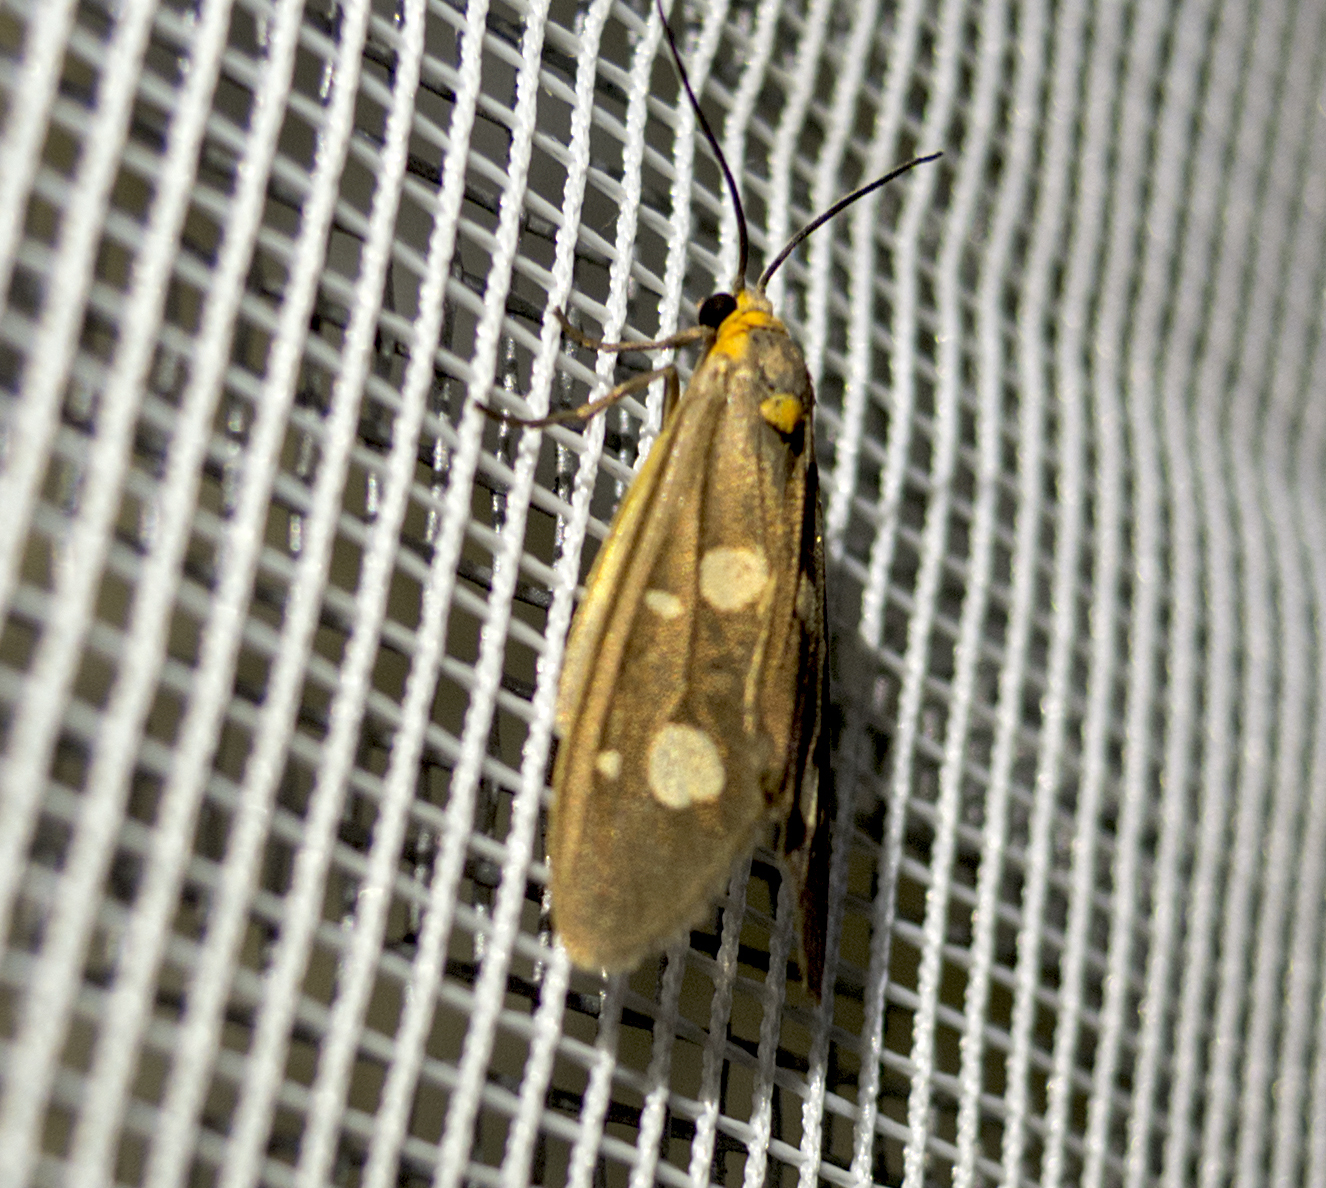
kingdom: Animalia
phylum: Arthropoda
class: Insecta
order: Lepidoptera
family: Erebidae
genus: Dysauxes
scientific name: Dysauxes punctata
